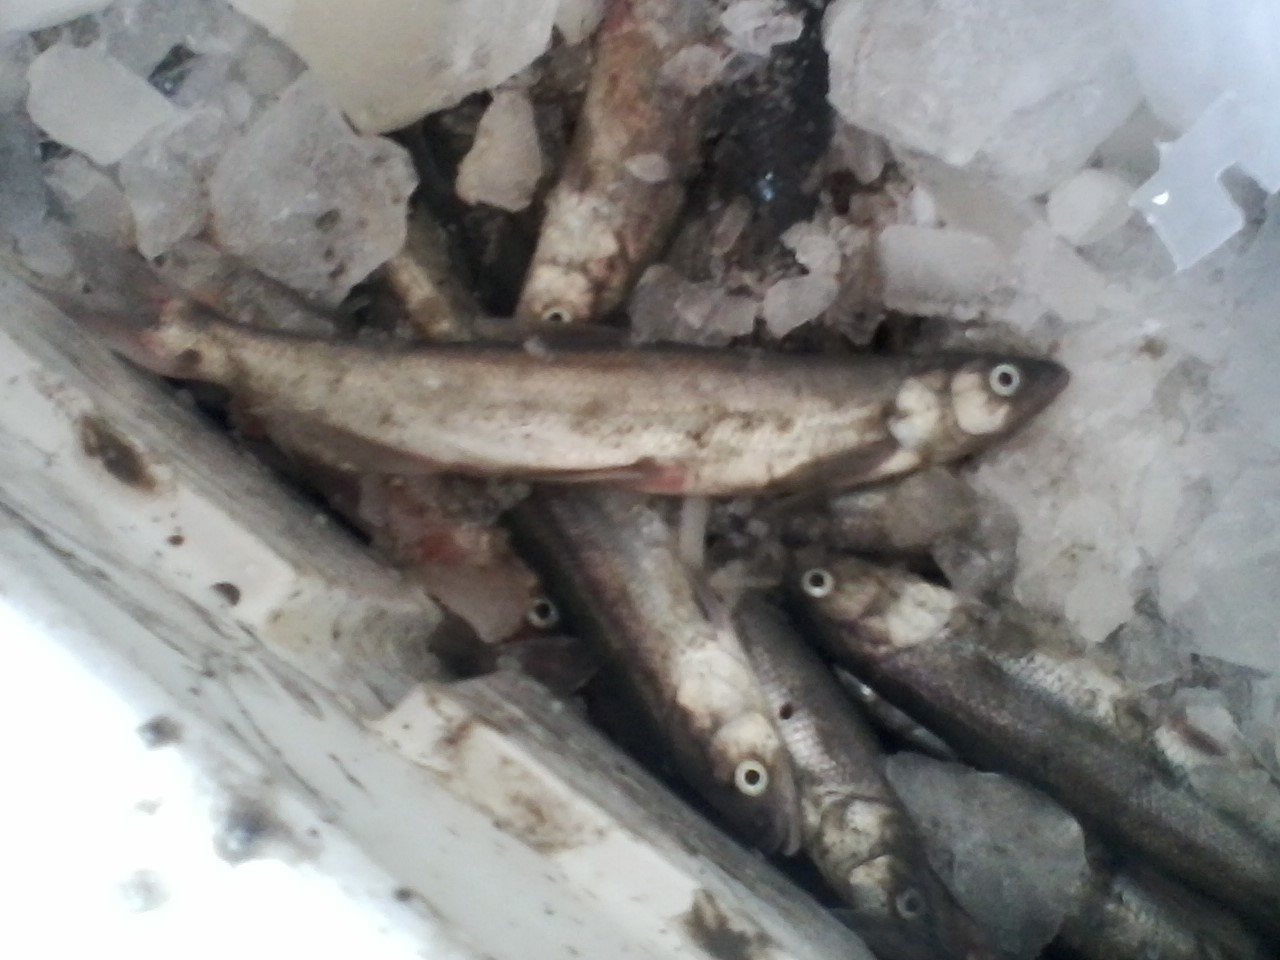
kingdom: Animalia
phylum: Chordata
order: Osmeriformes
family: Osmeridae
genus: Thaleichthys
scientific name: Thaleichthys pacificus
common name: Eulachon
